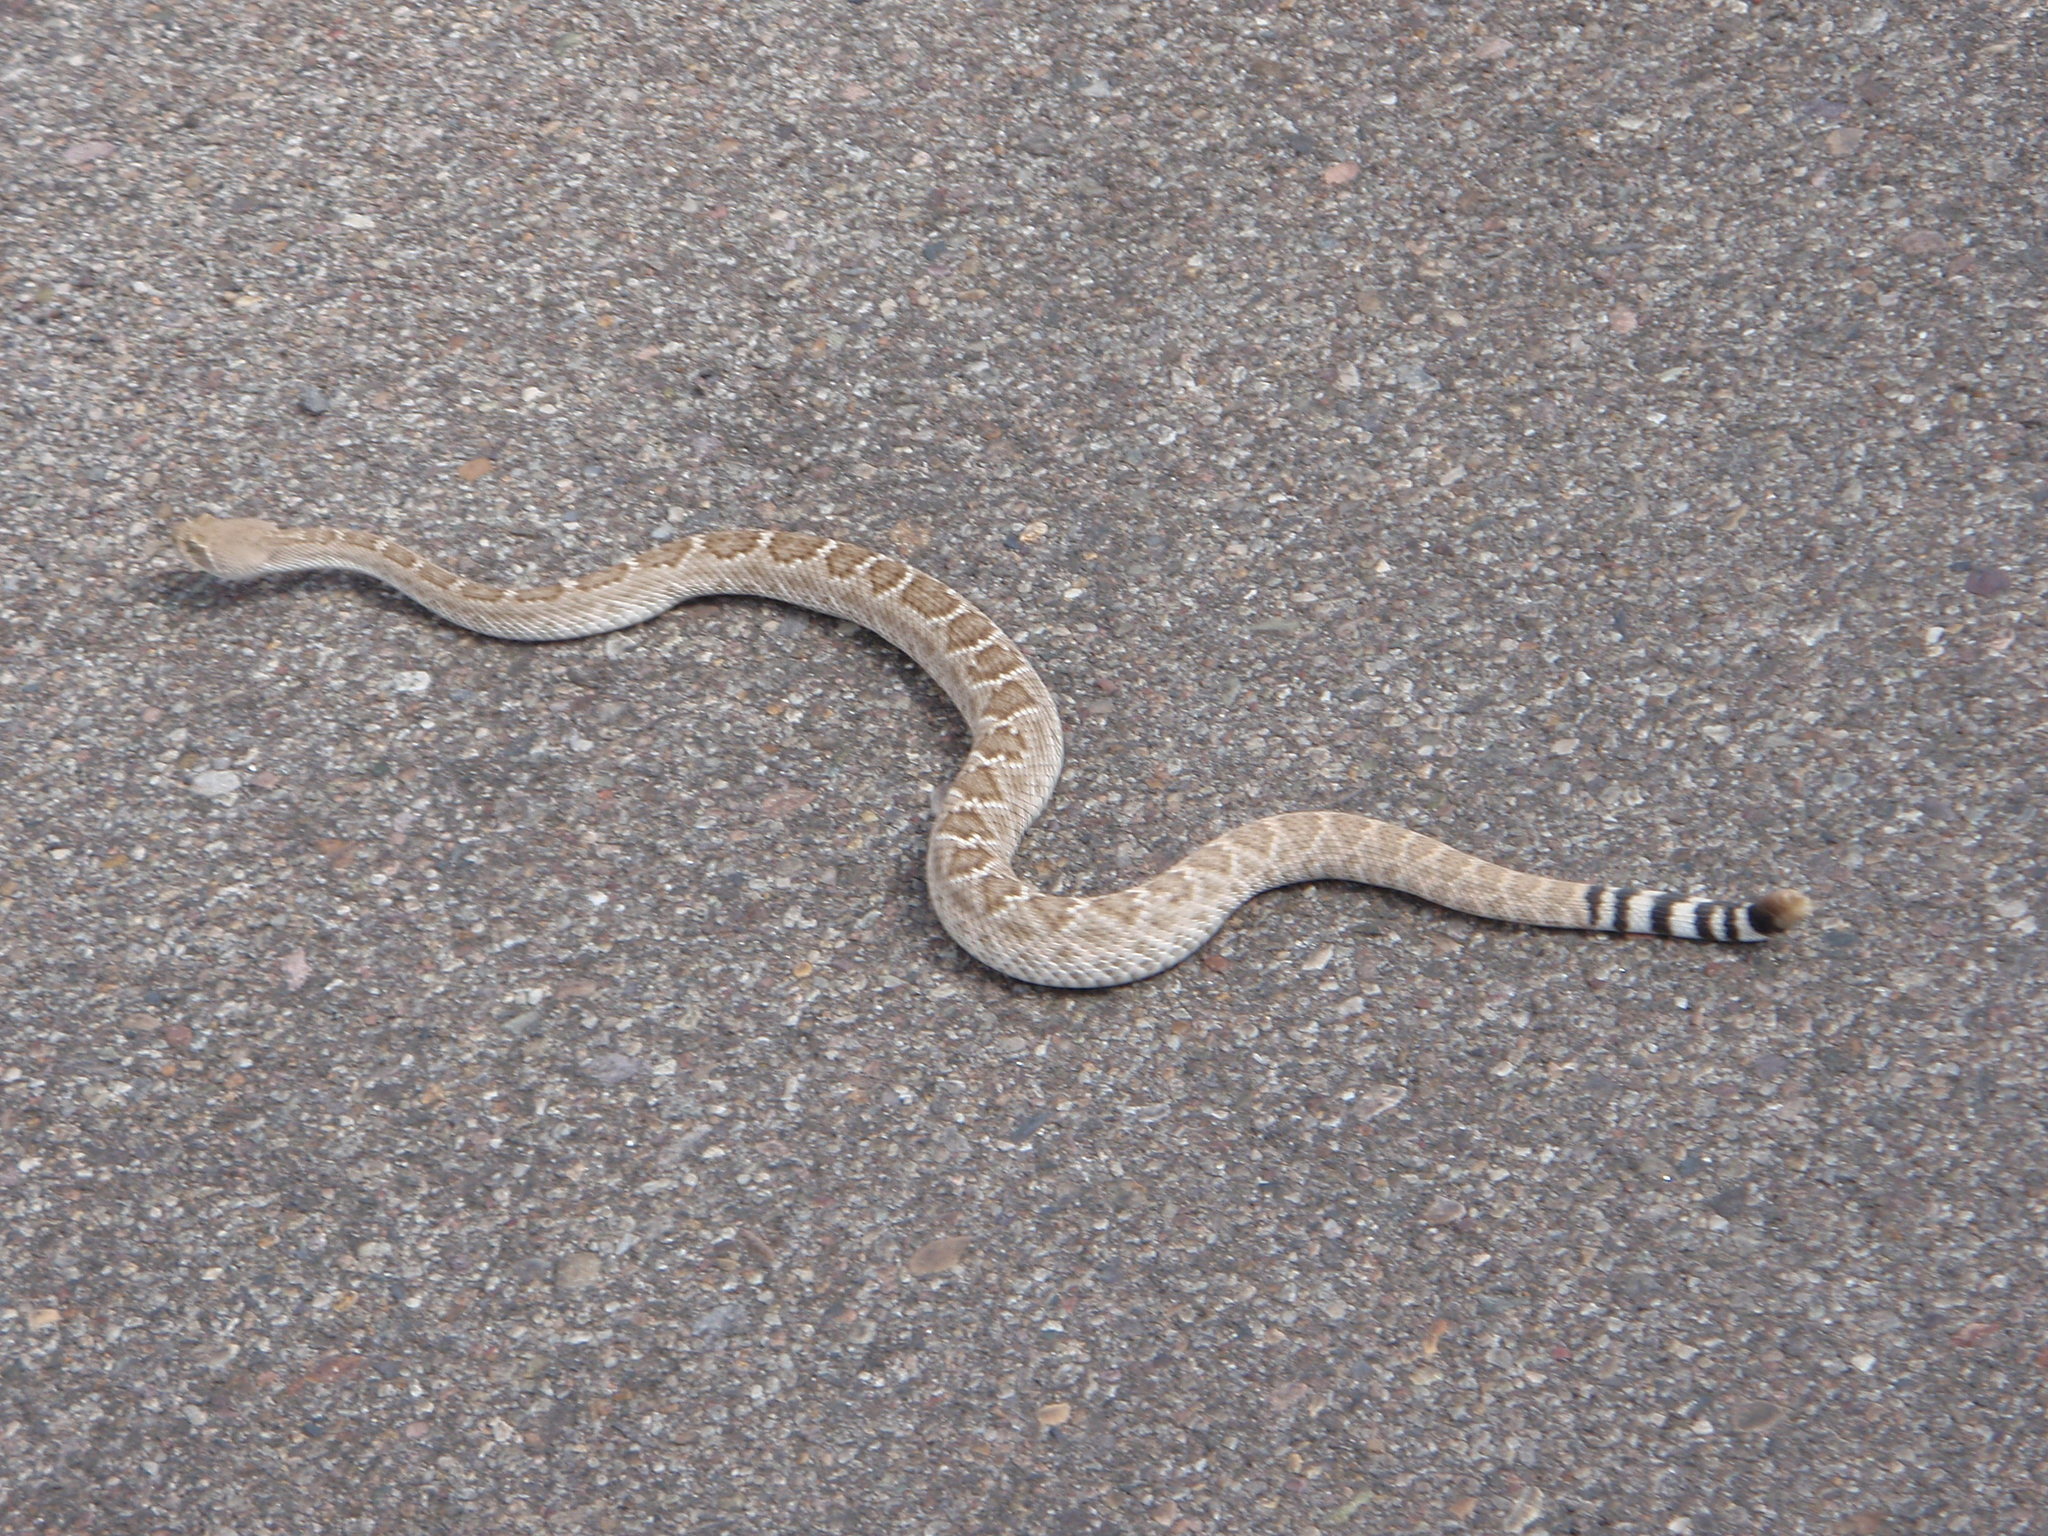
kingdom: Animalia
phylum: Chordata
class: Squamata
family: Viperidae
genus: Crotalus
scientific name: Crotalus atrox
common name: Western diamond-backed rattlesnake
